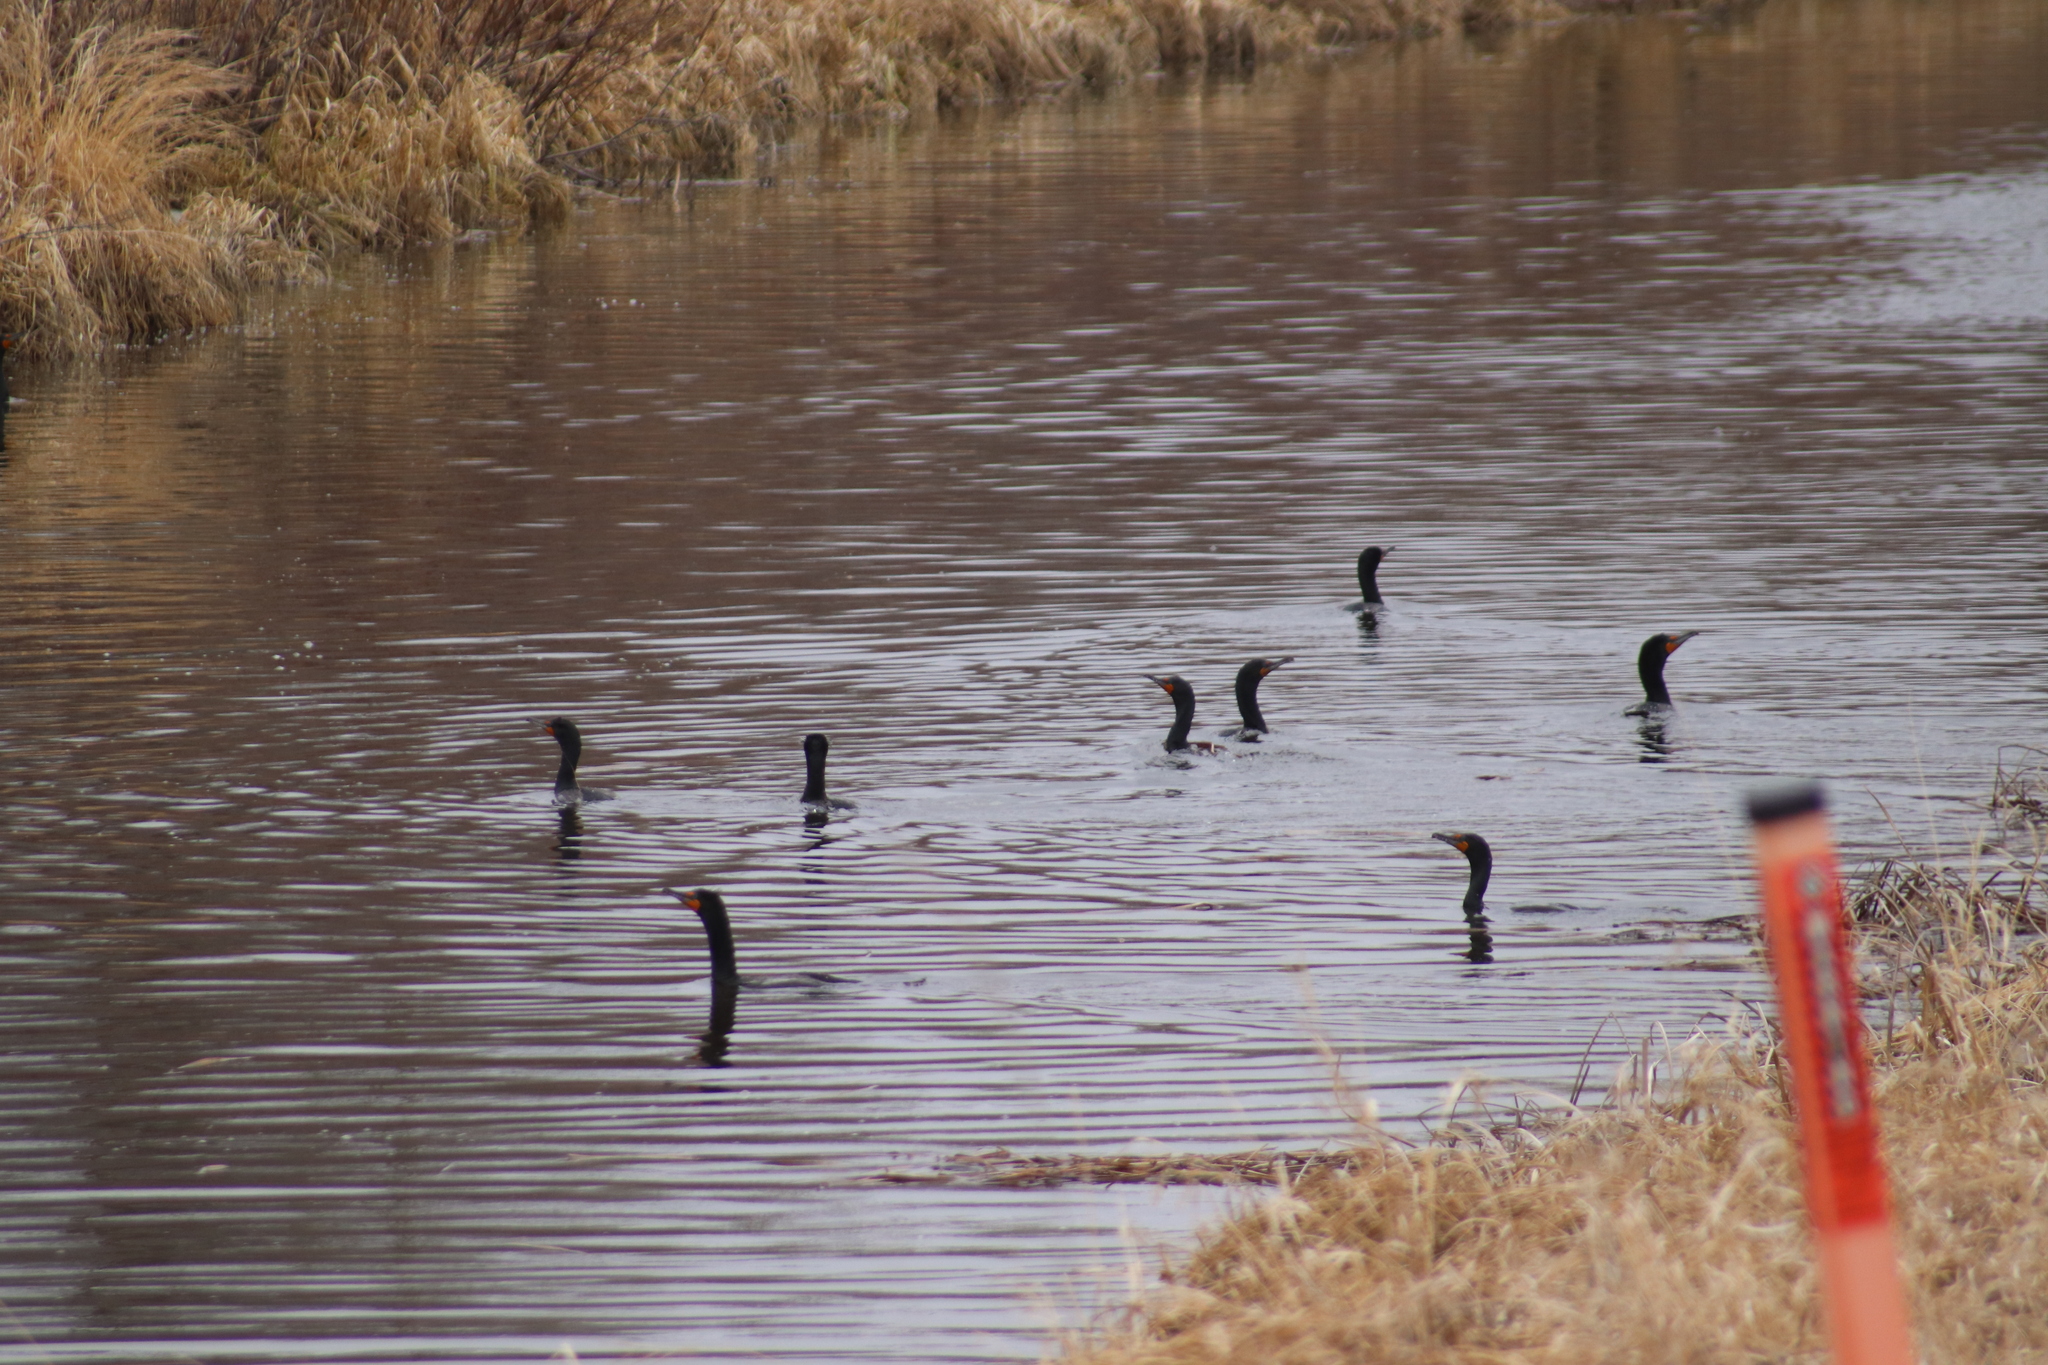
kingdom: Animalia
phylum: Chordata
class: Aves
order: Suliformes
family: Phalacrocoracidae
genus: Phalacrocorax
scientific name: Phalacrocorax auritus
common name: Double-crested cormorant
